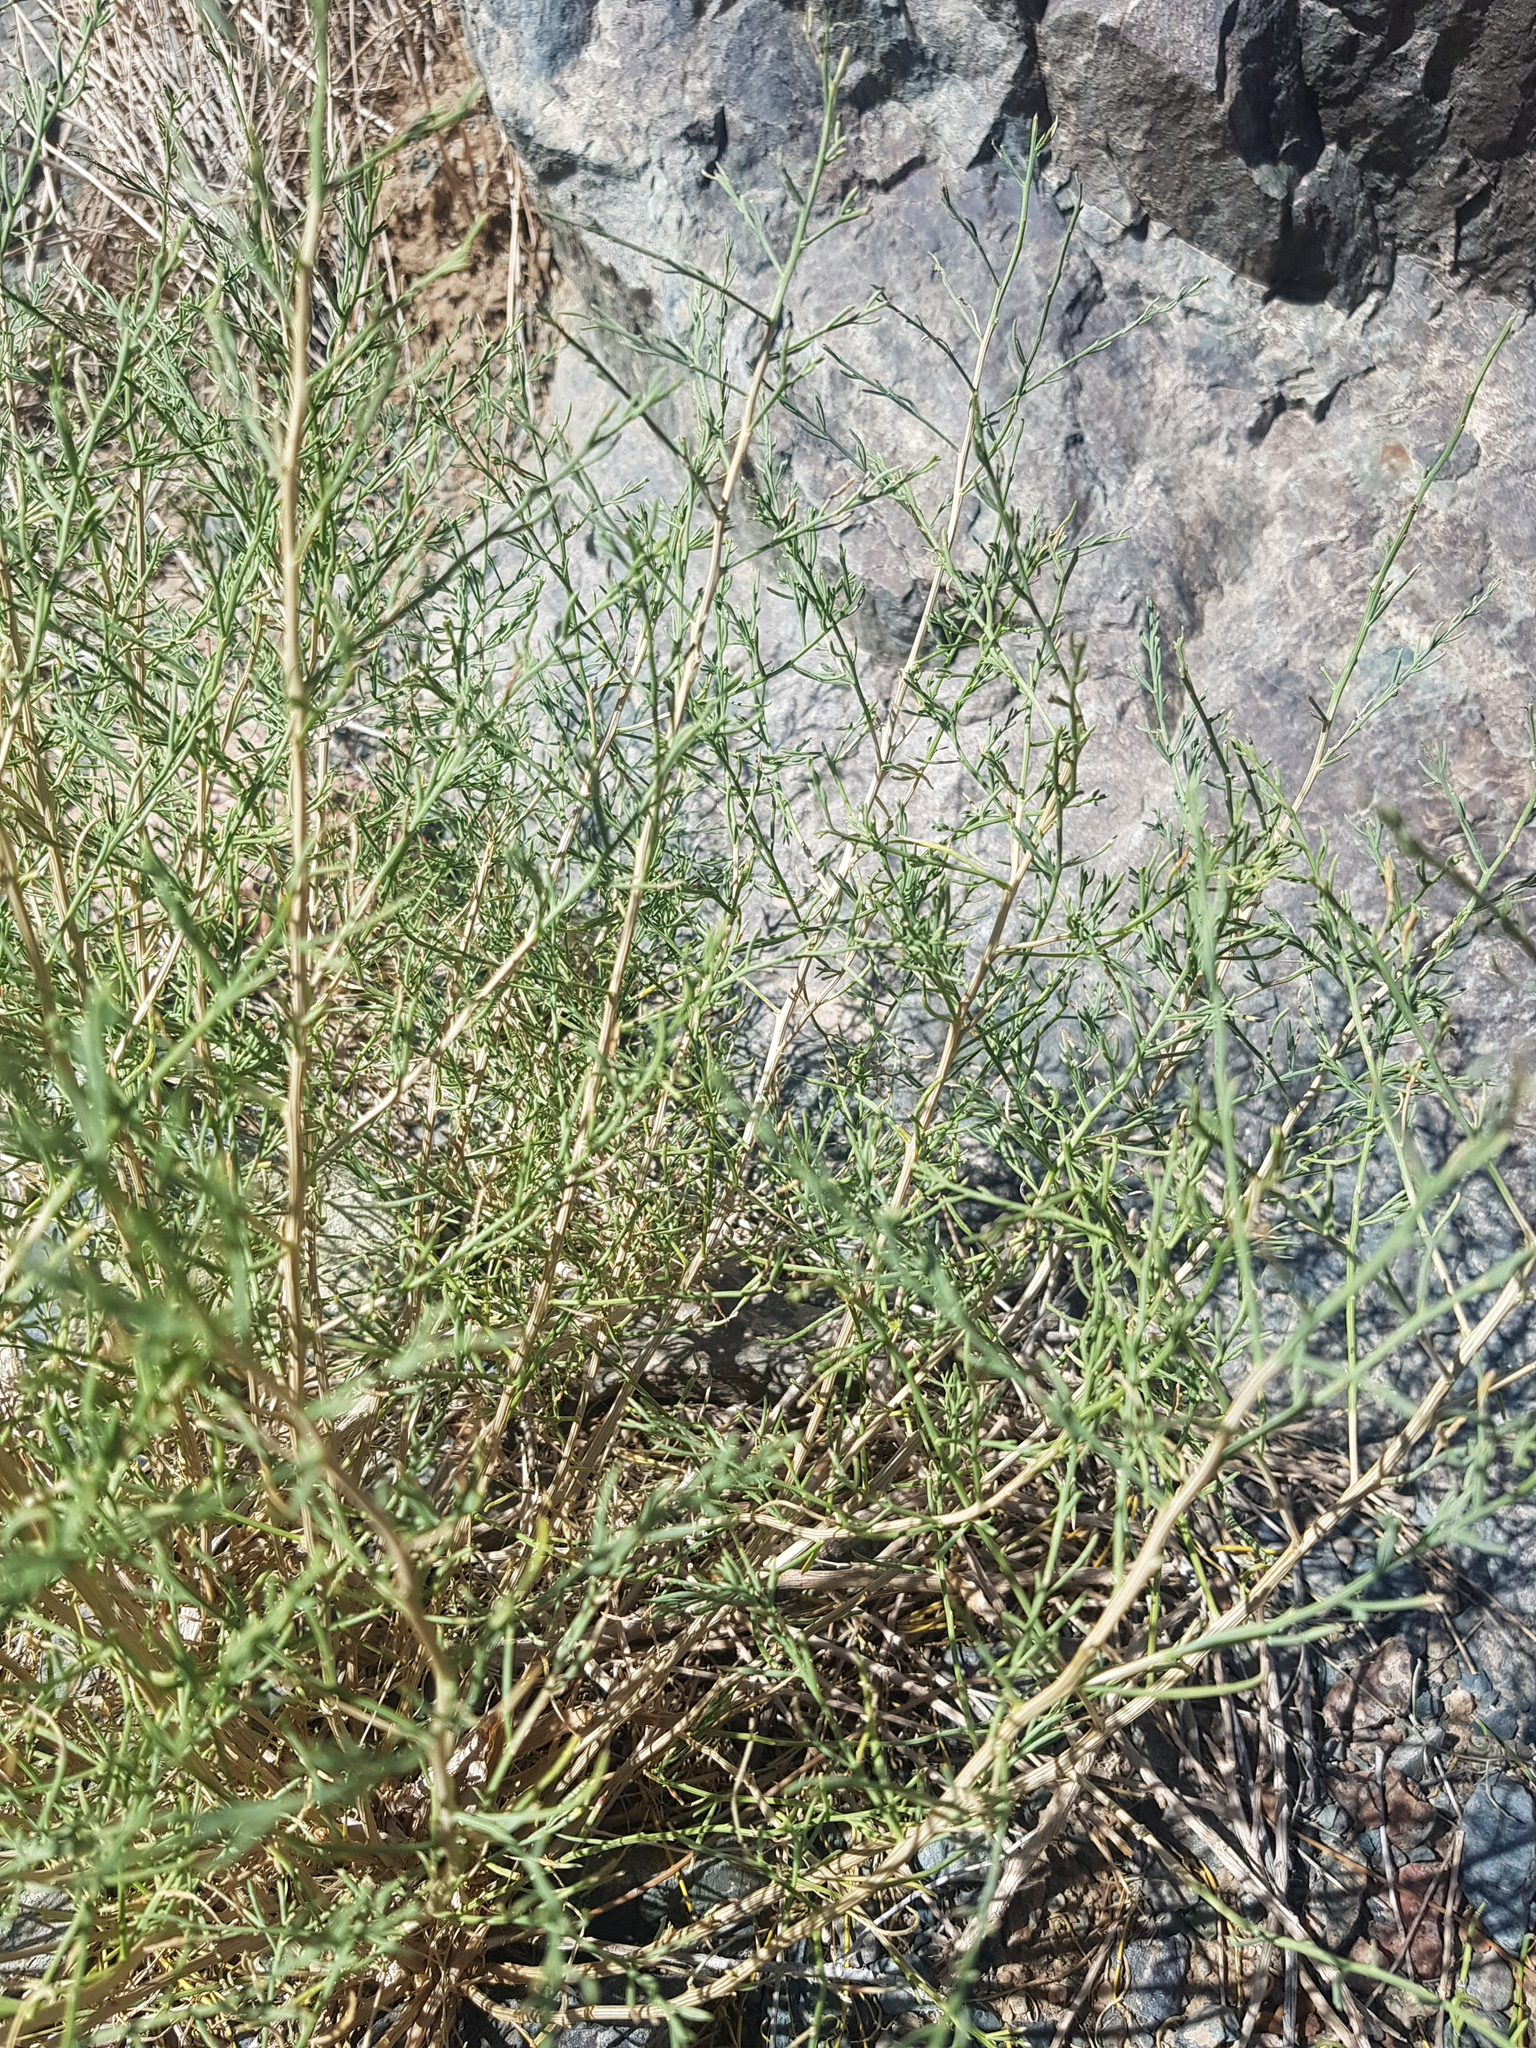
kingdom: Plantae
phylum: Tracheophyta
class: Magnoliopsida
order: Asterales
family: Asteraceae
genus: Artemisia
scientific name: Artemisia xanthochloa
